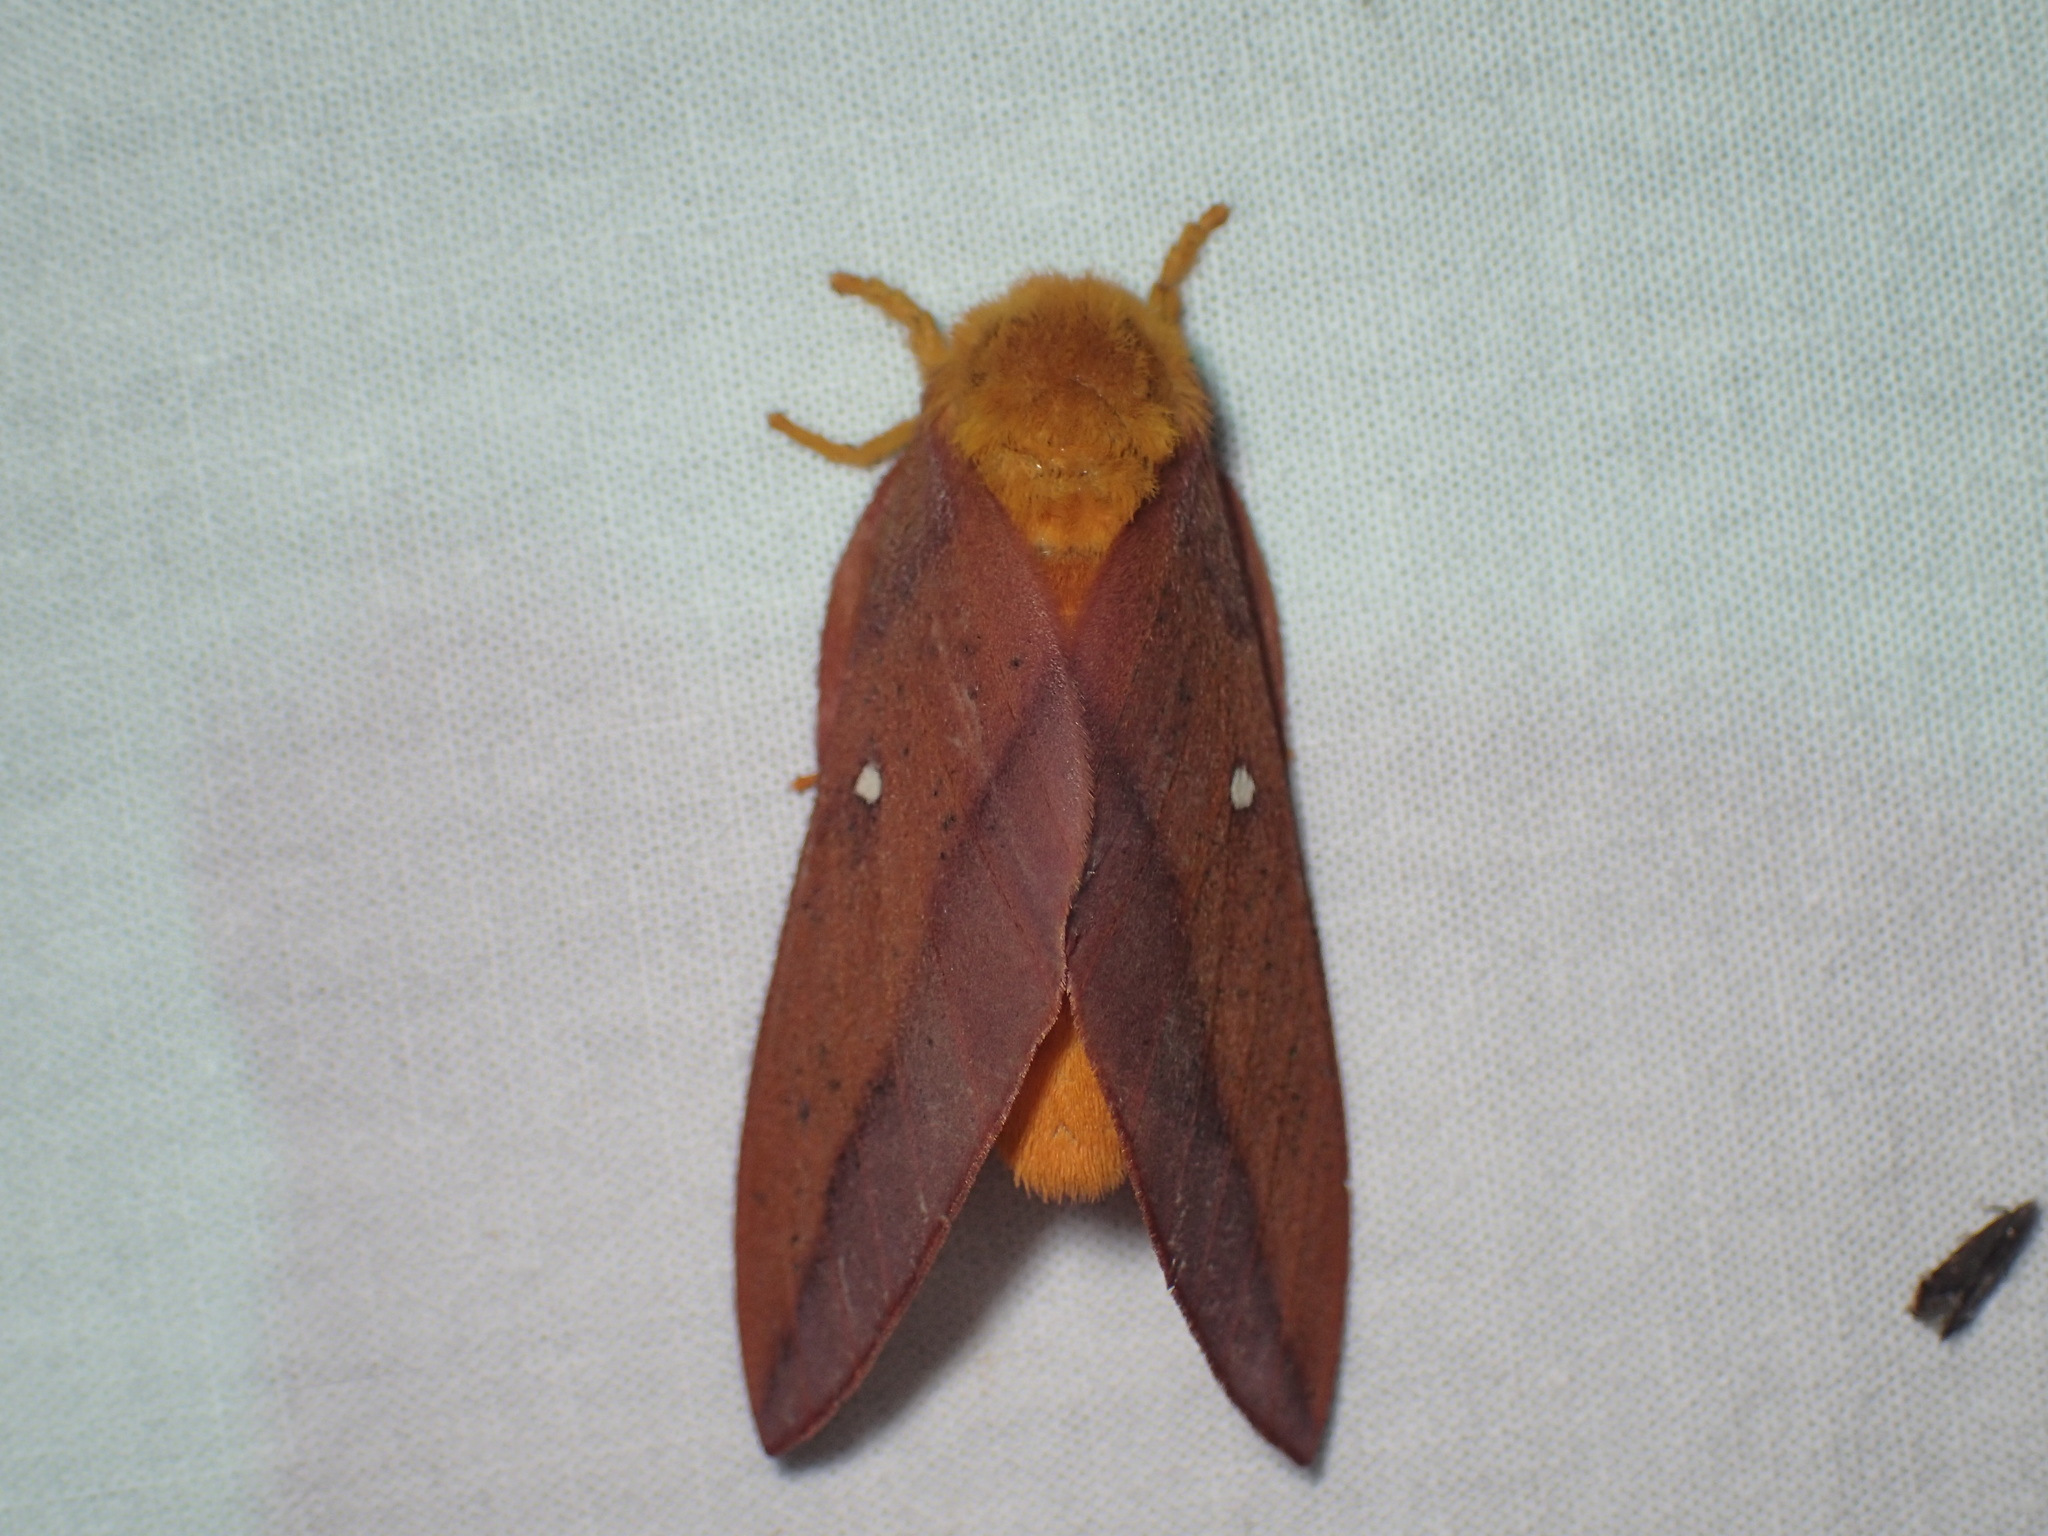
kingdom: Animalia
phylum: Arthropoda
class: Insecta
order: Lepidoptera
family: Saturniidae
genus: Anisota
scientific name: Anisota virginiensis
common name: Pink striped oakworm moth
